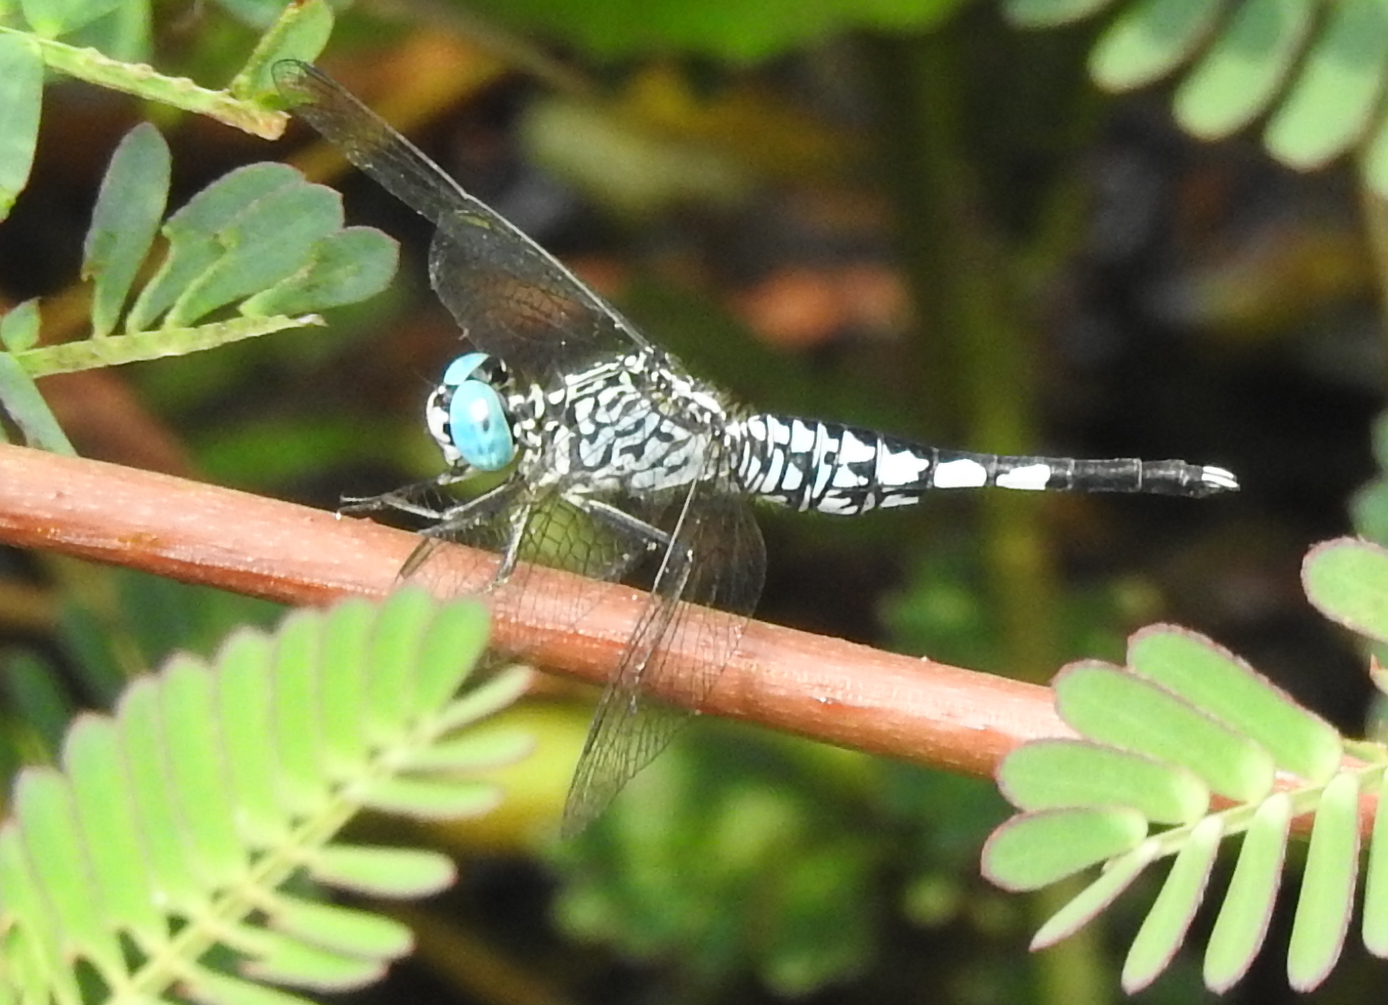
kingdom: Animalia
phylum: Arthropoda
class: Insecta
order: Odonata
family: Libellulidae
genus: Acisoma
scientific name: Acisoma panorpoides
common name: Asian pintail
